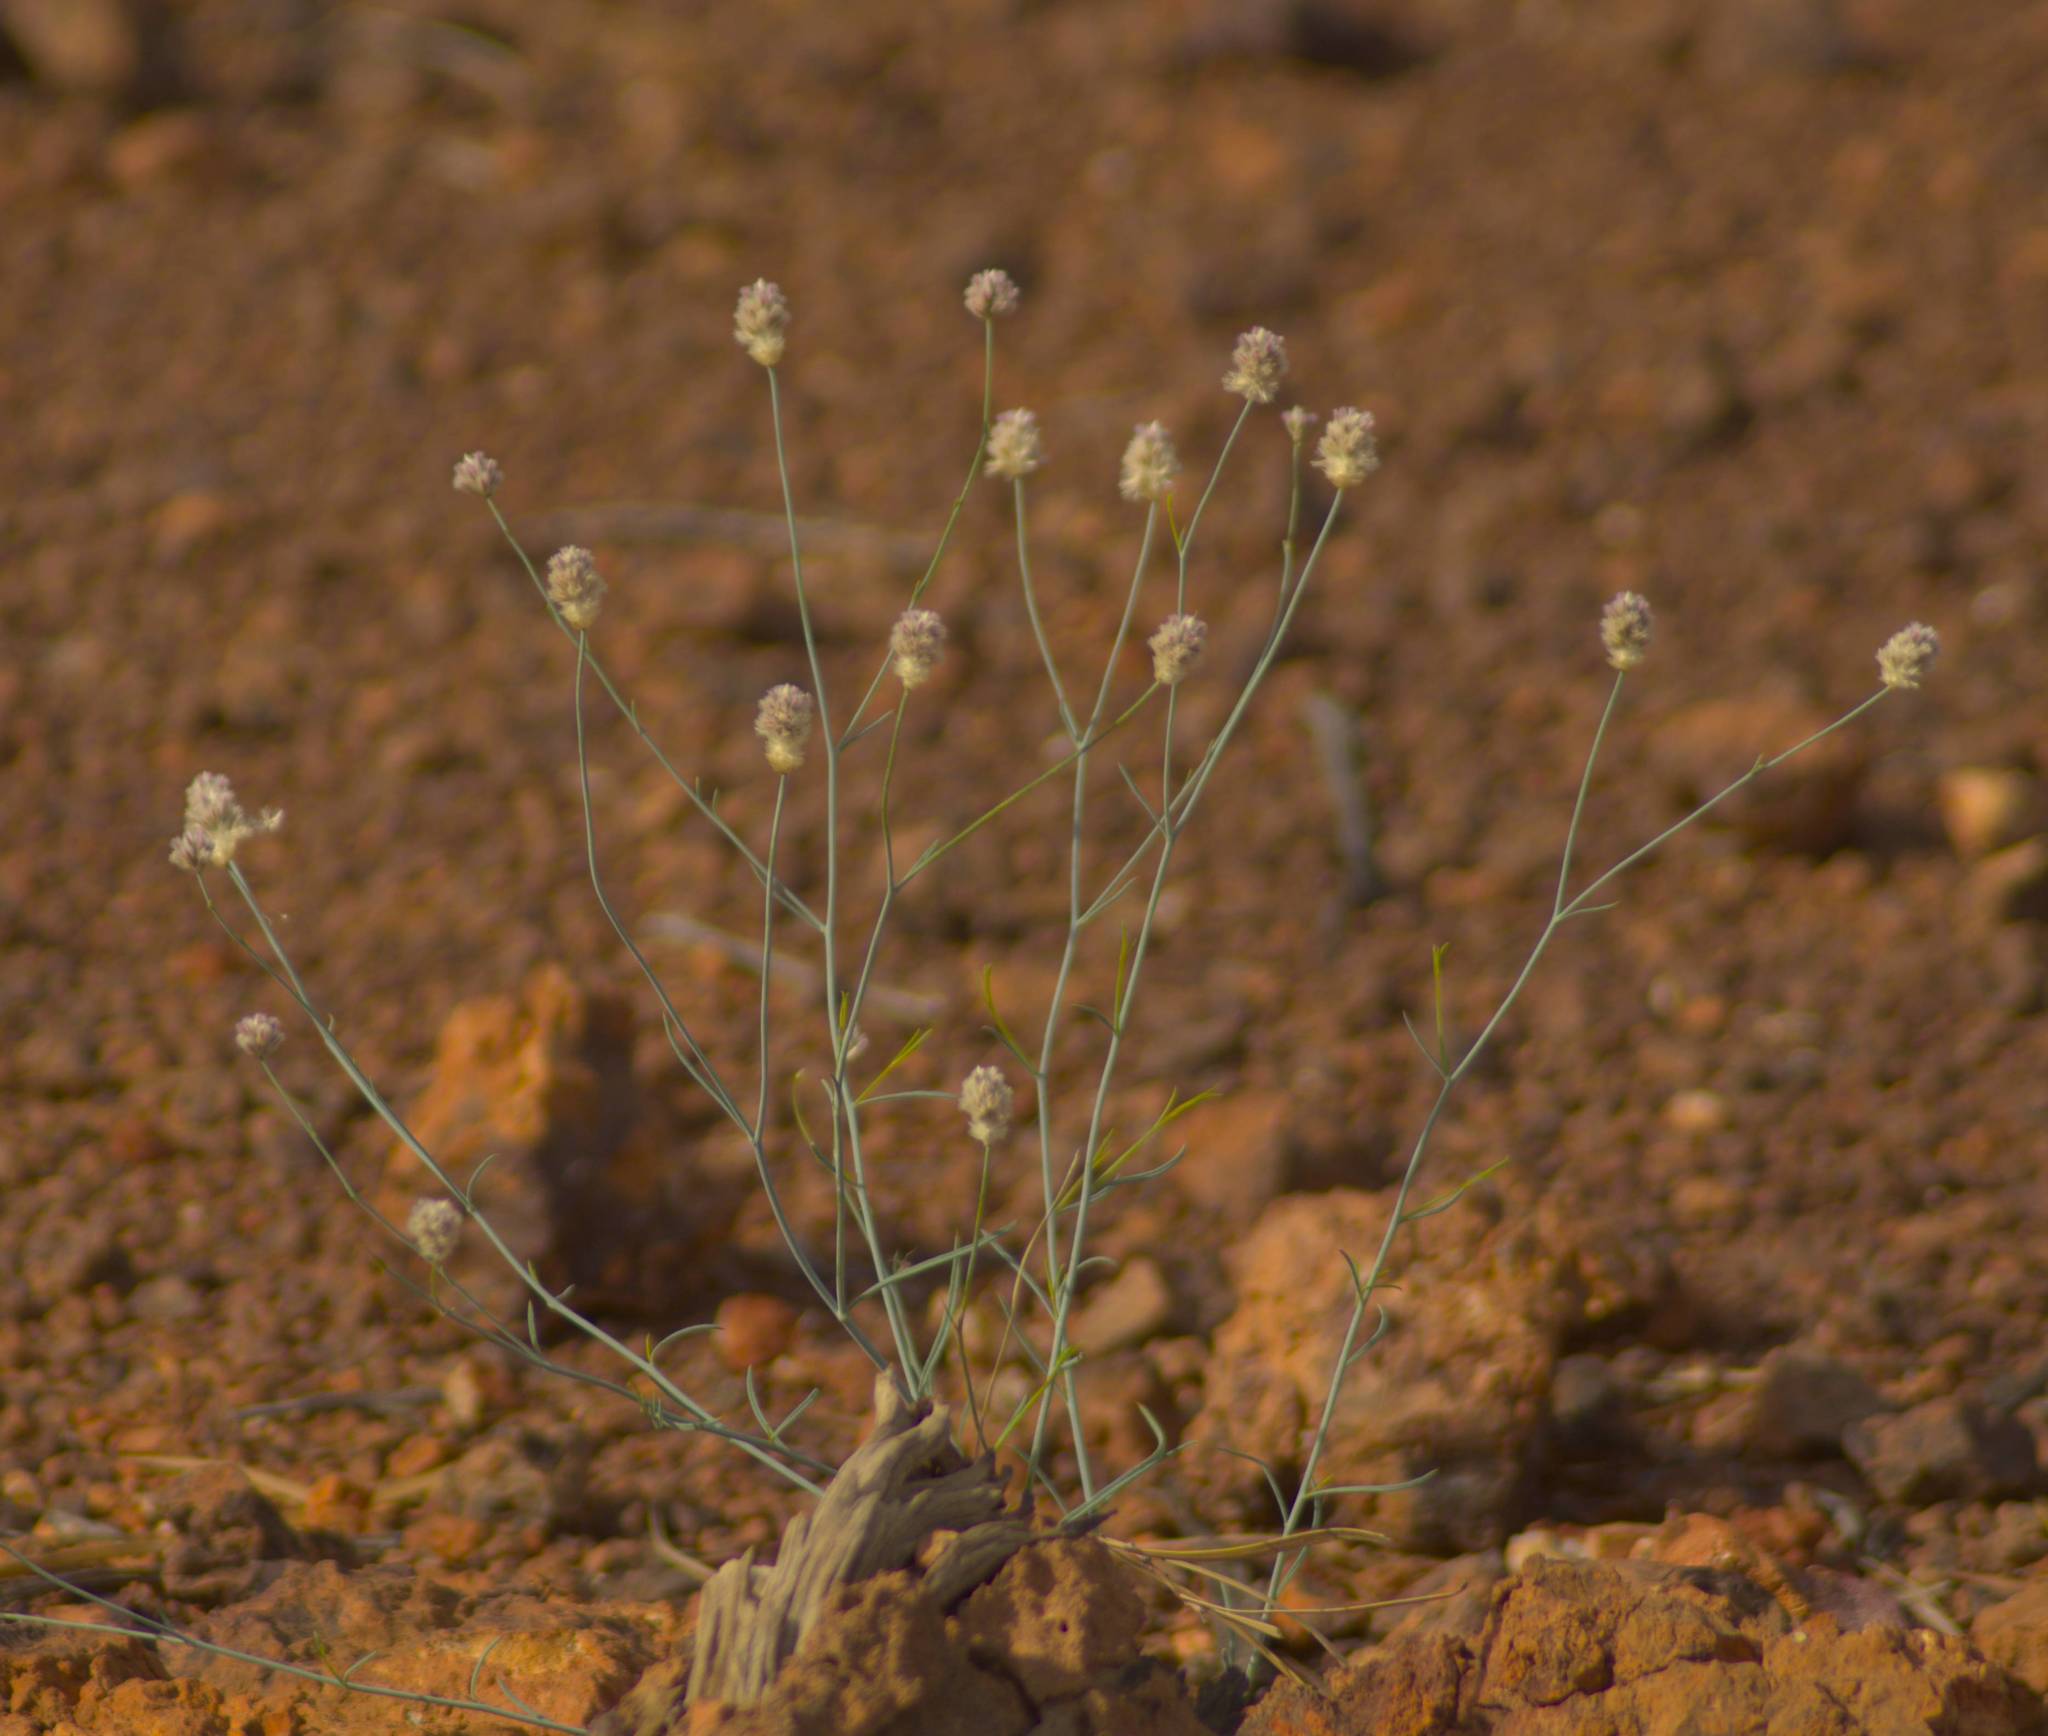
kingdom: Plantae
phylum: Tracheophyta
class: Magnoliopsida
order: Caryophyllales
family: Amaranthaceae
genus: Ptilotus
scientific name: Ptilotus schwartzii
